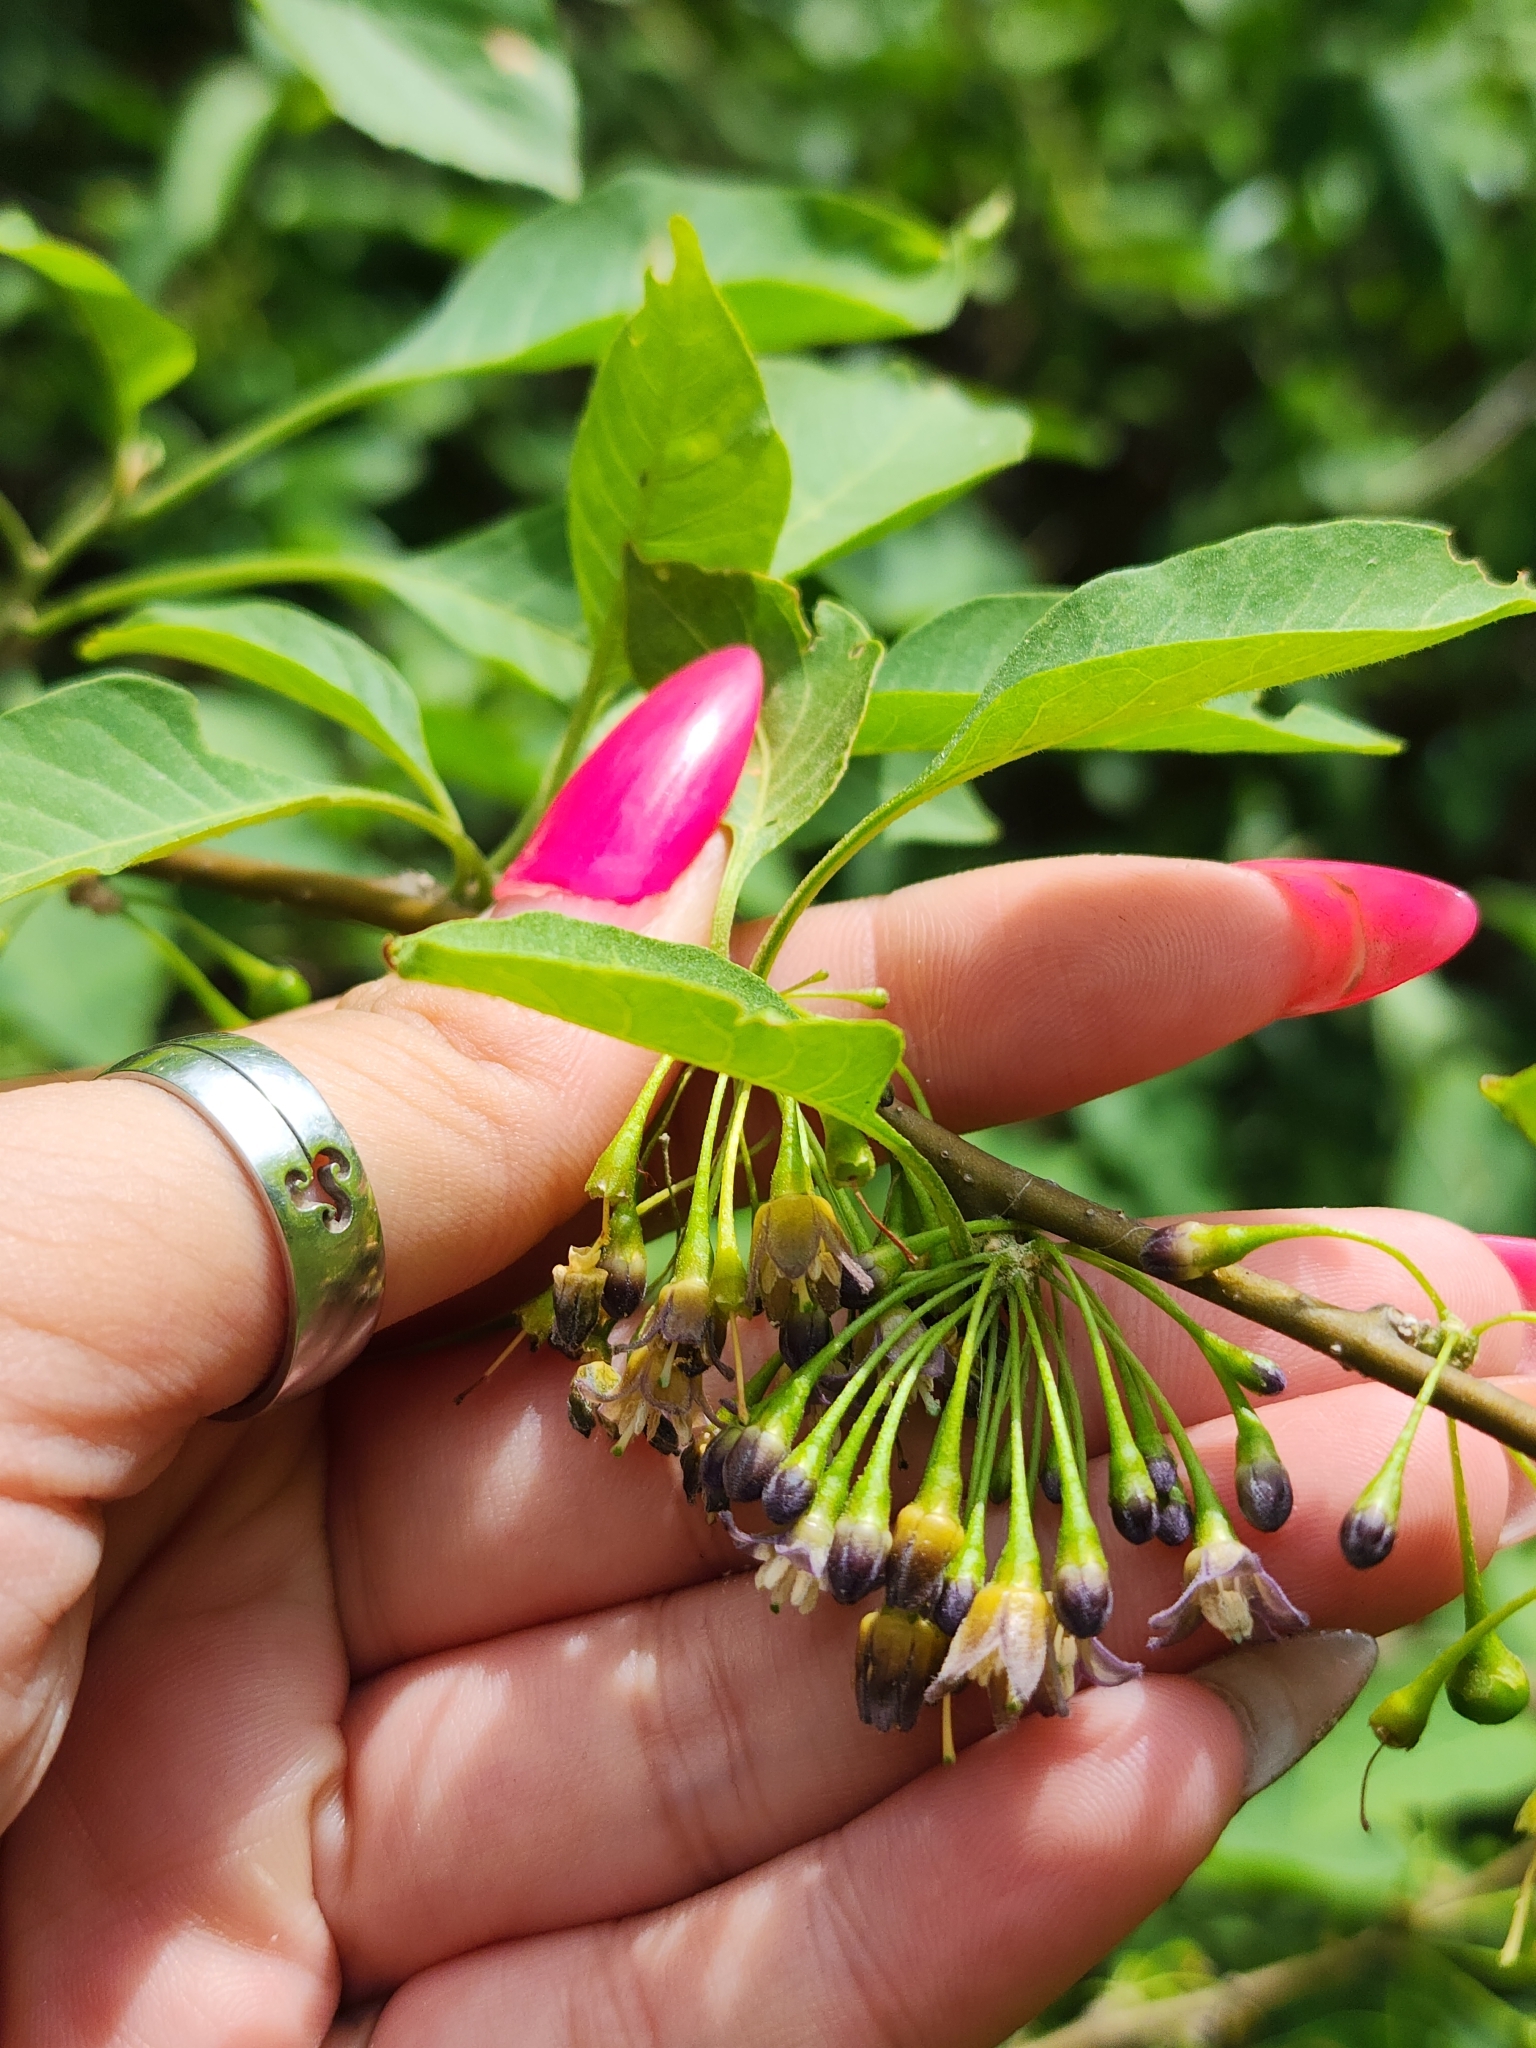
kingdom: Plantae
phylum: Tracheophyta
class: Magnoliopsida
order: Solanales
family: Solanaceae
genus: Vassobia
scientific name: Vassobia breviflora
